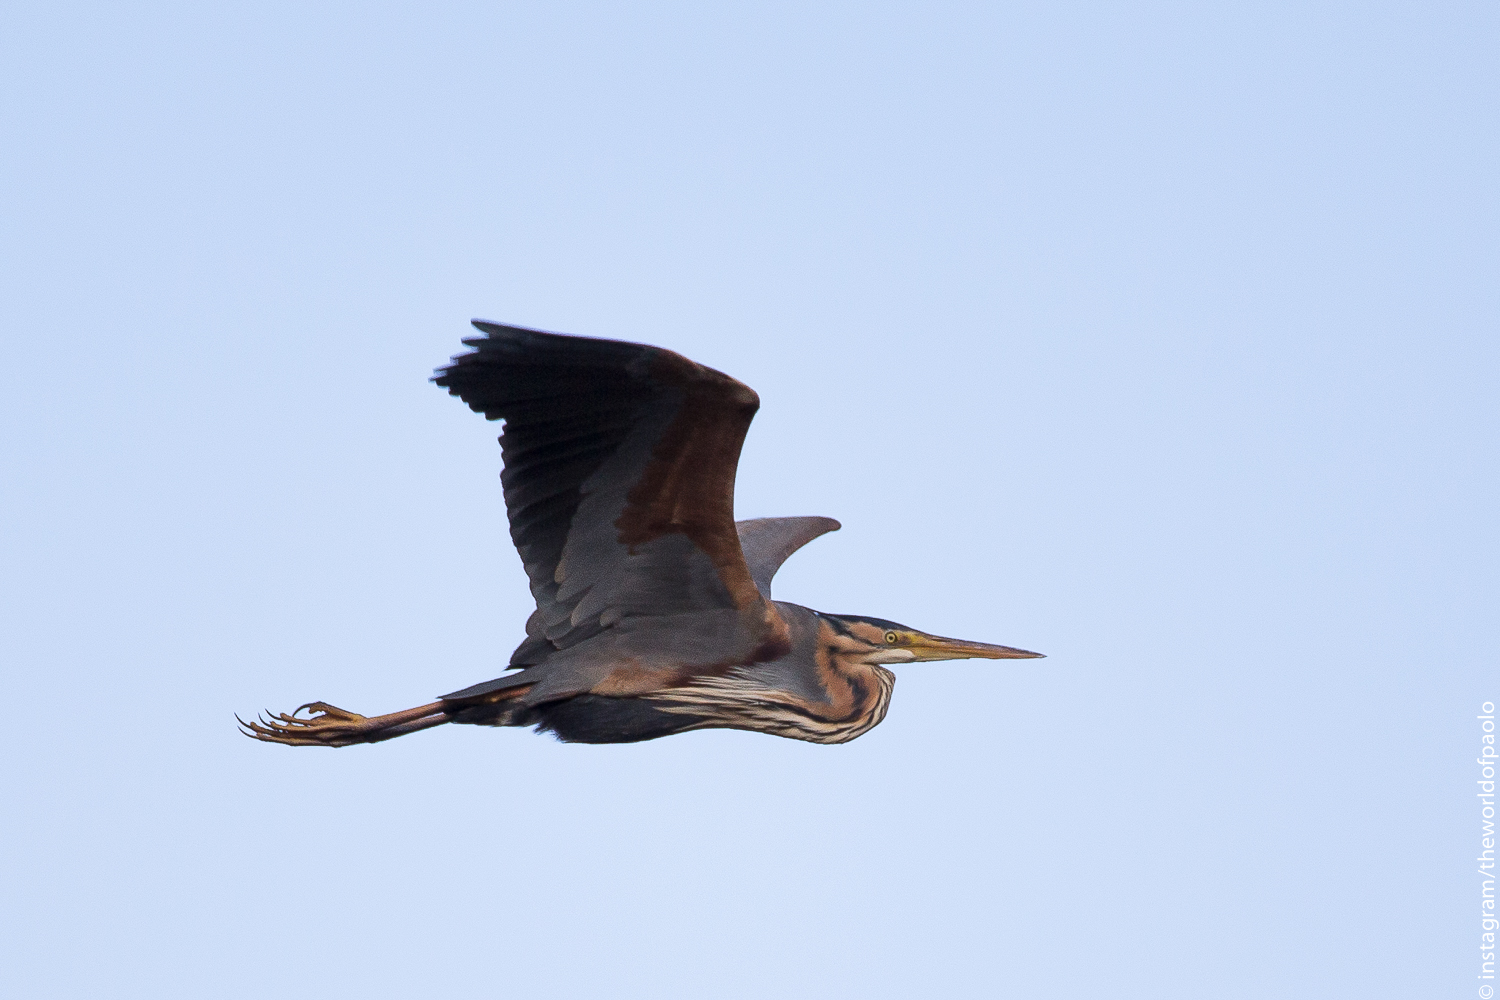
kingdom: Animalia
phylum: Chordata
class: Aves
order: Pelecaniformes
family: Ardeidae
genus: Ardea
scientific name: Ardea purpurea
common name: Purple heron
